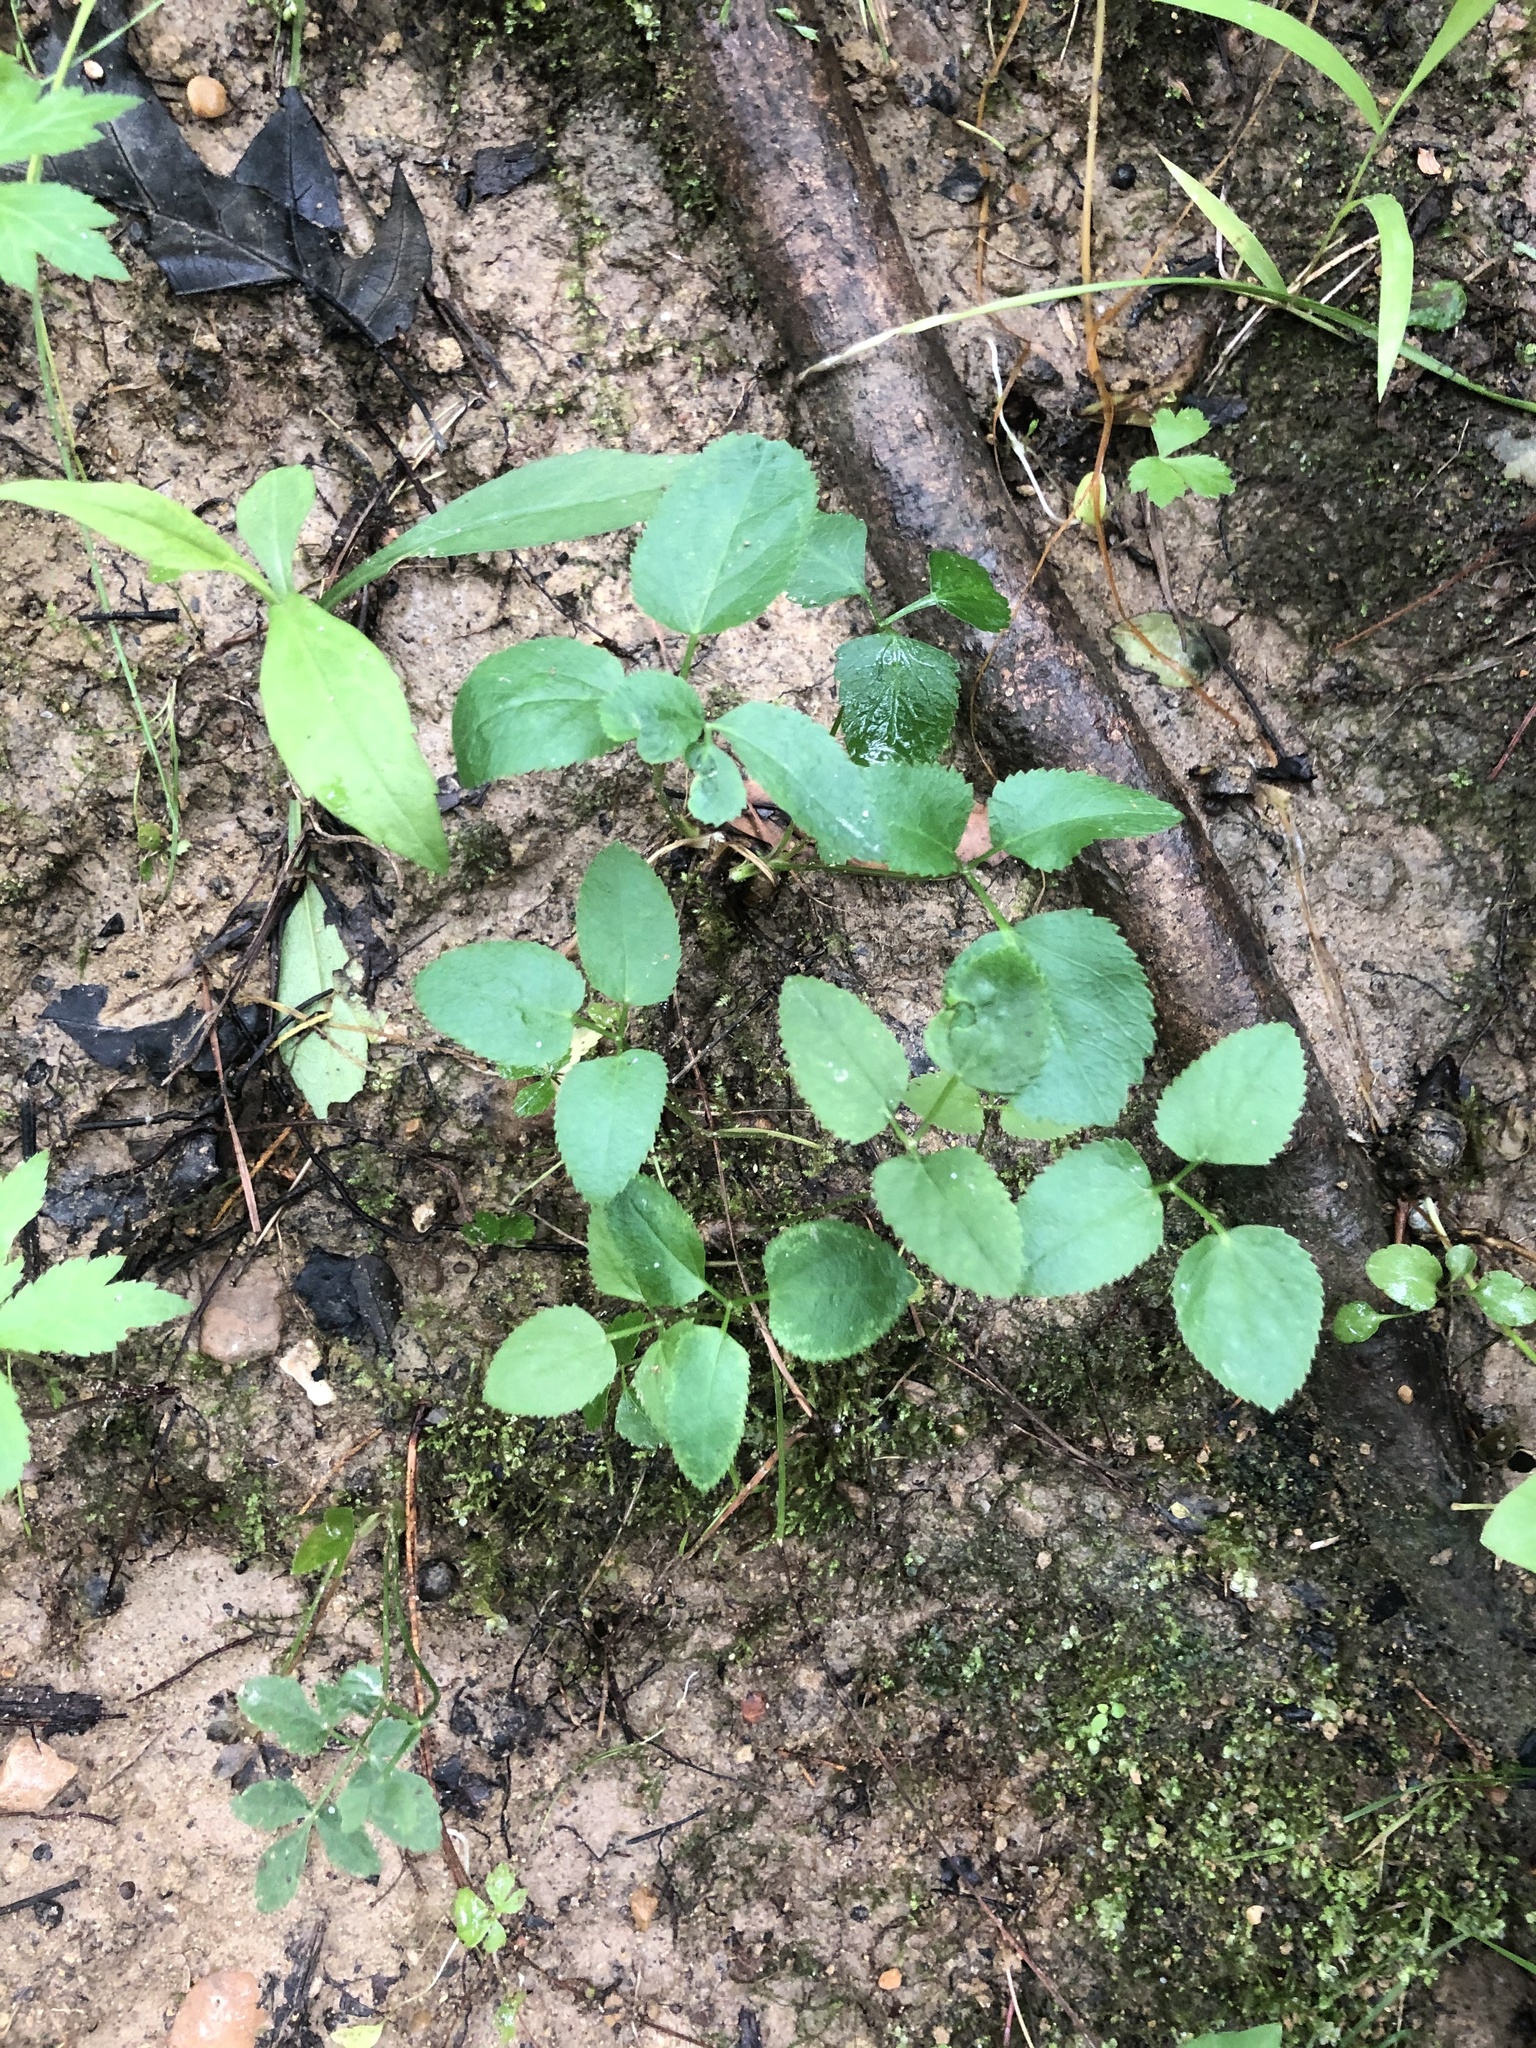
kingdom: Plantae
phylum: Tracheophyta
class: Magnoliopsida
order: Apiales
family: Apiaceae
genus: Zizia
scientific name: Zizia aurea
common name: Golden alexanders
